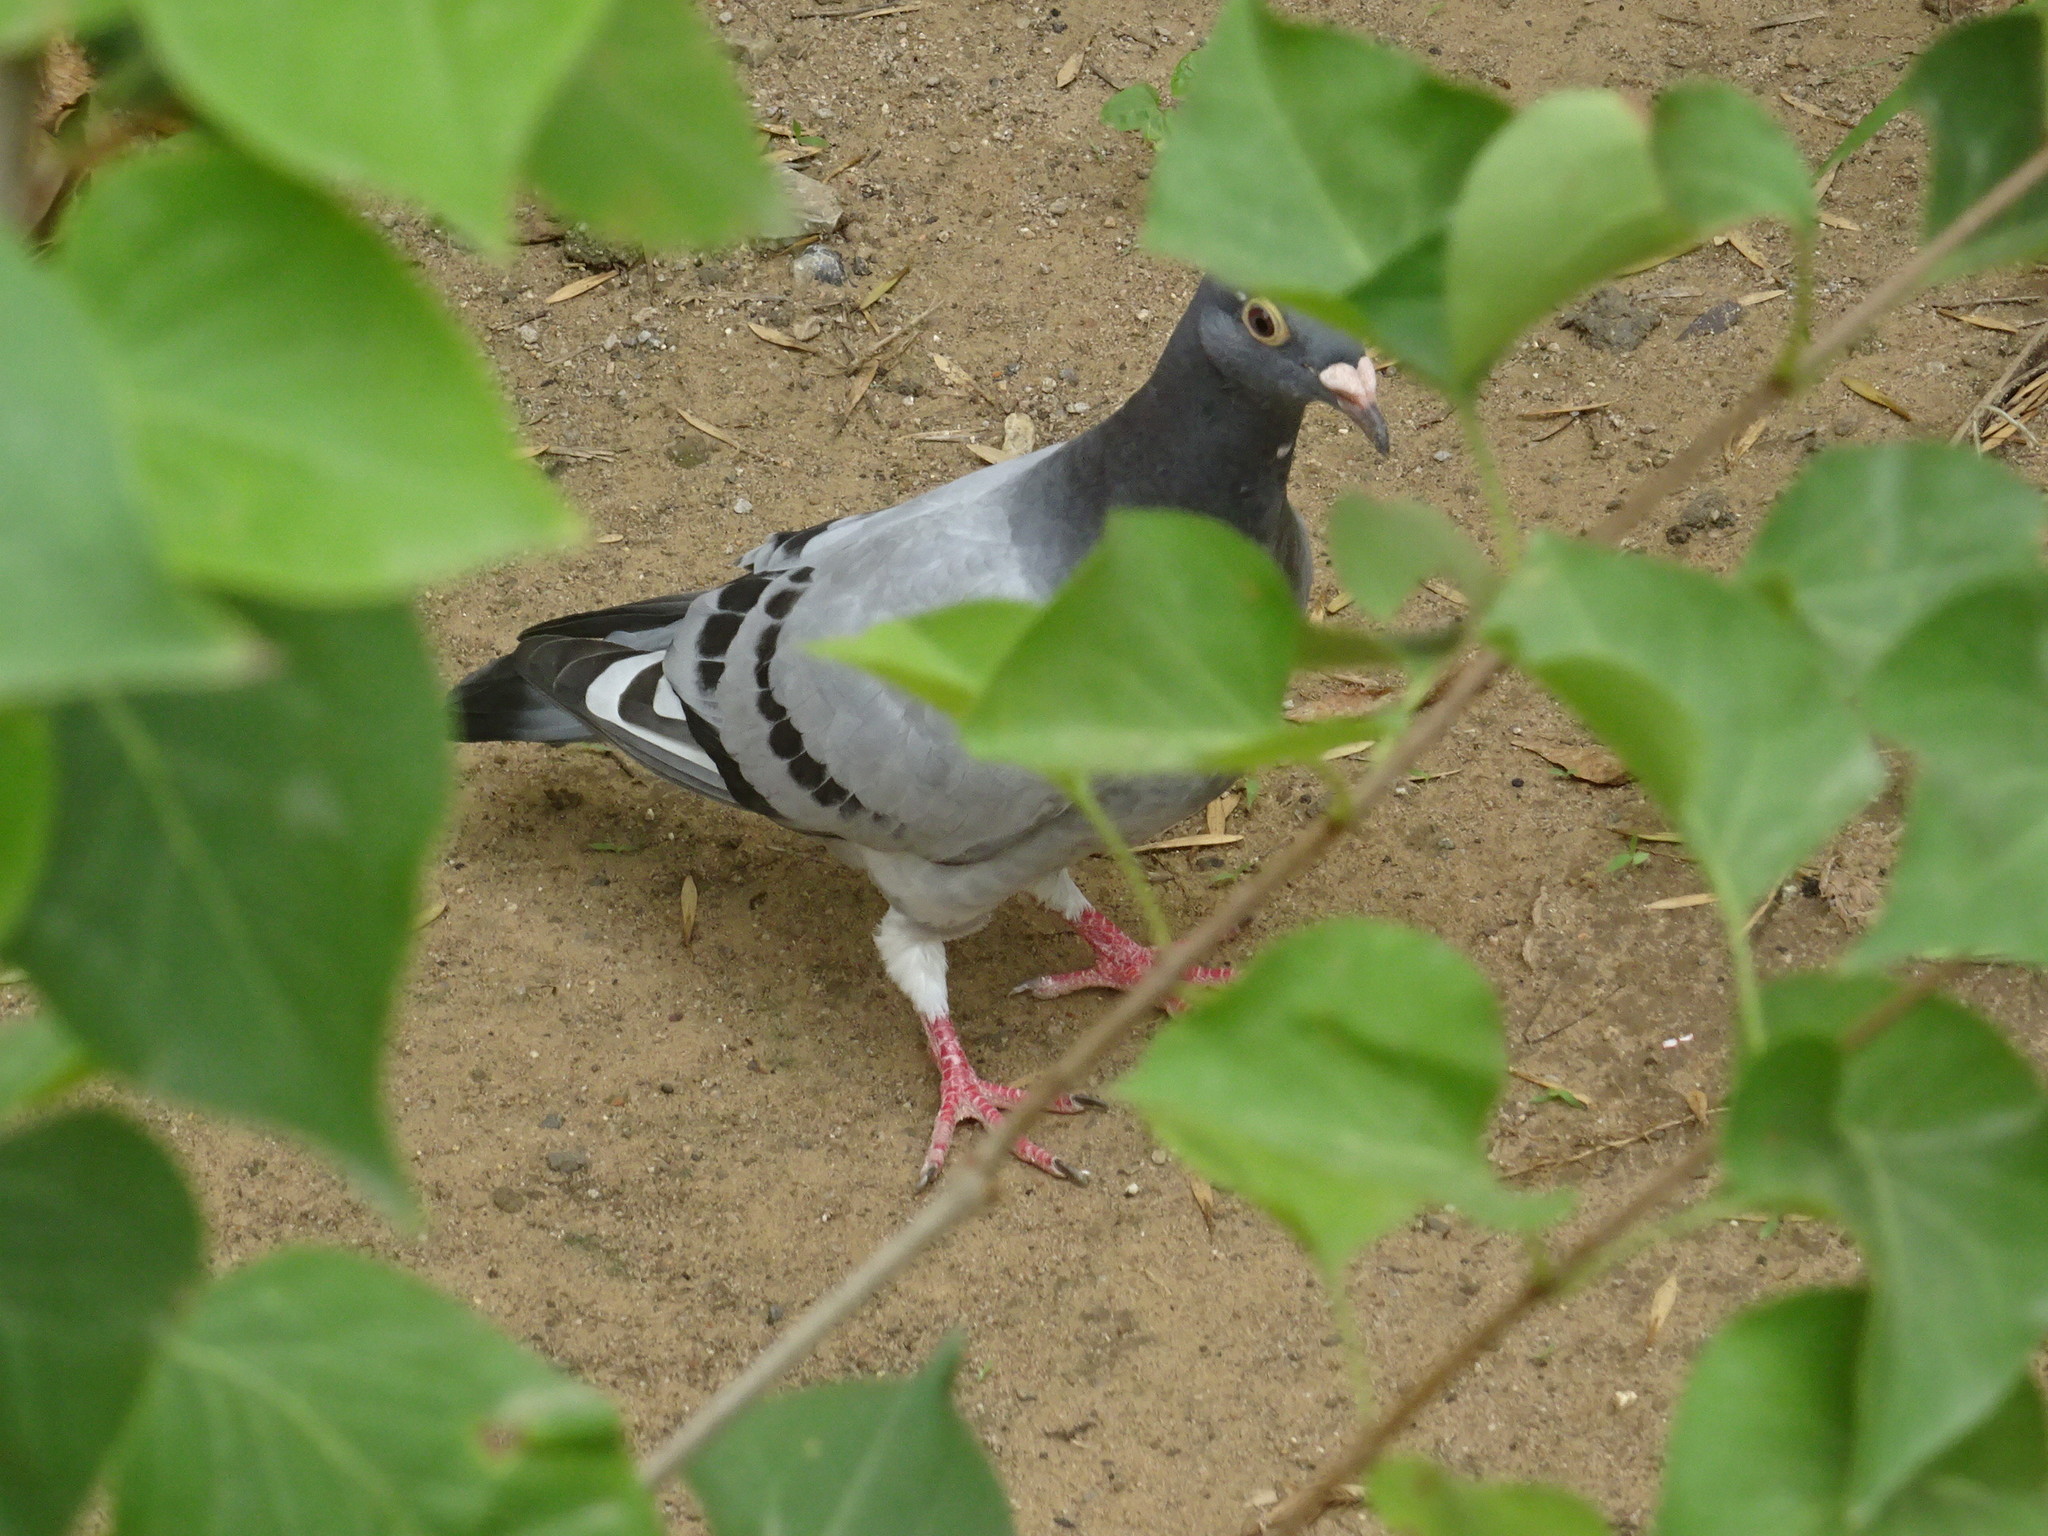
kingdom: Animalia
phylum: Chordata
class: Aves
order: Columbiformes
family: Columbidae
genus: Columba
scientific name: Columba livia
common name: Rock pigeon
